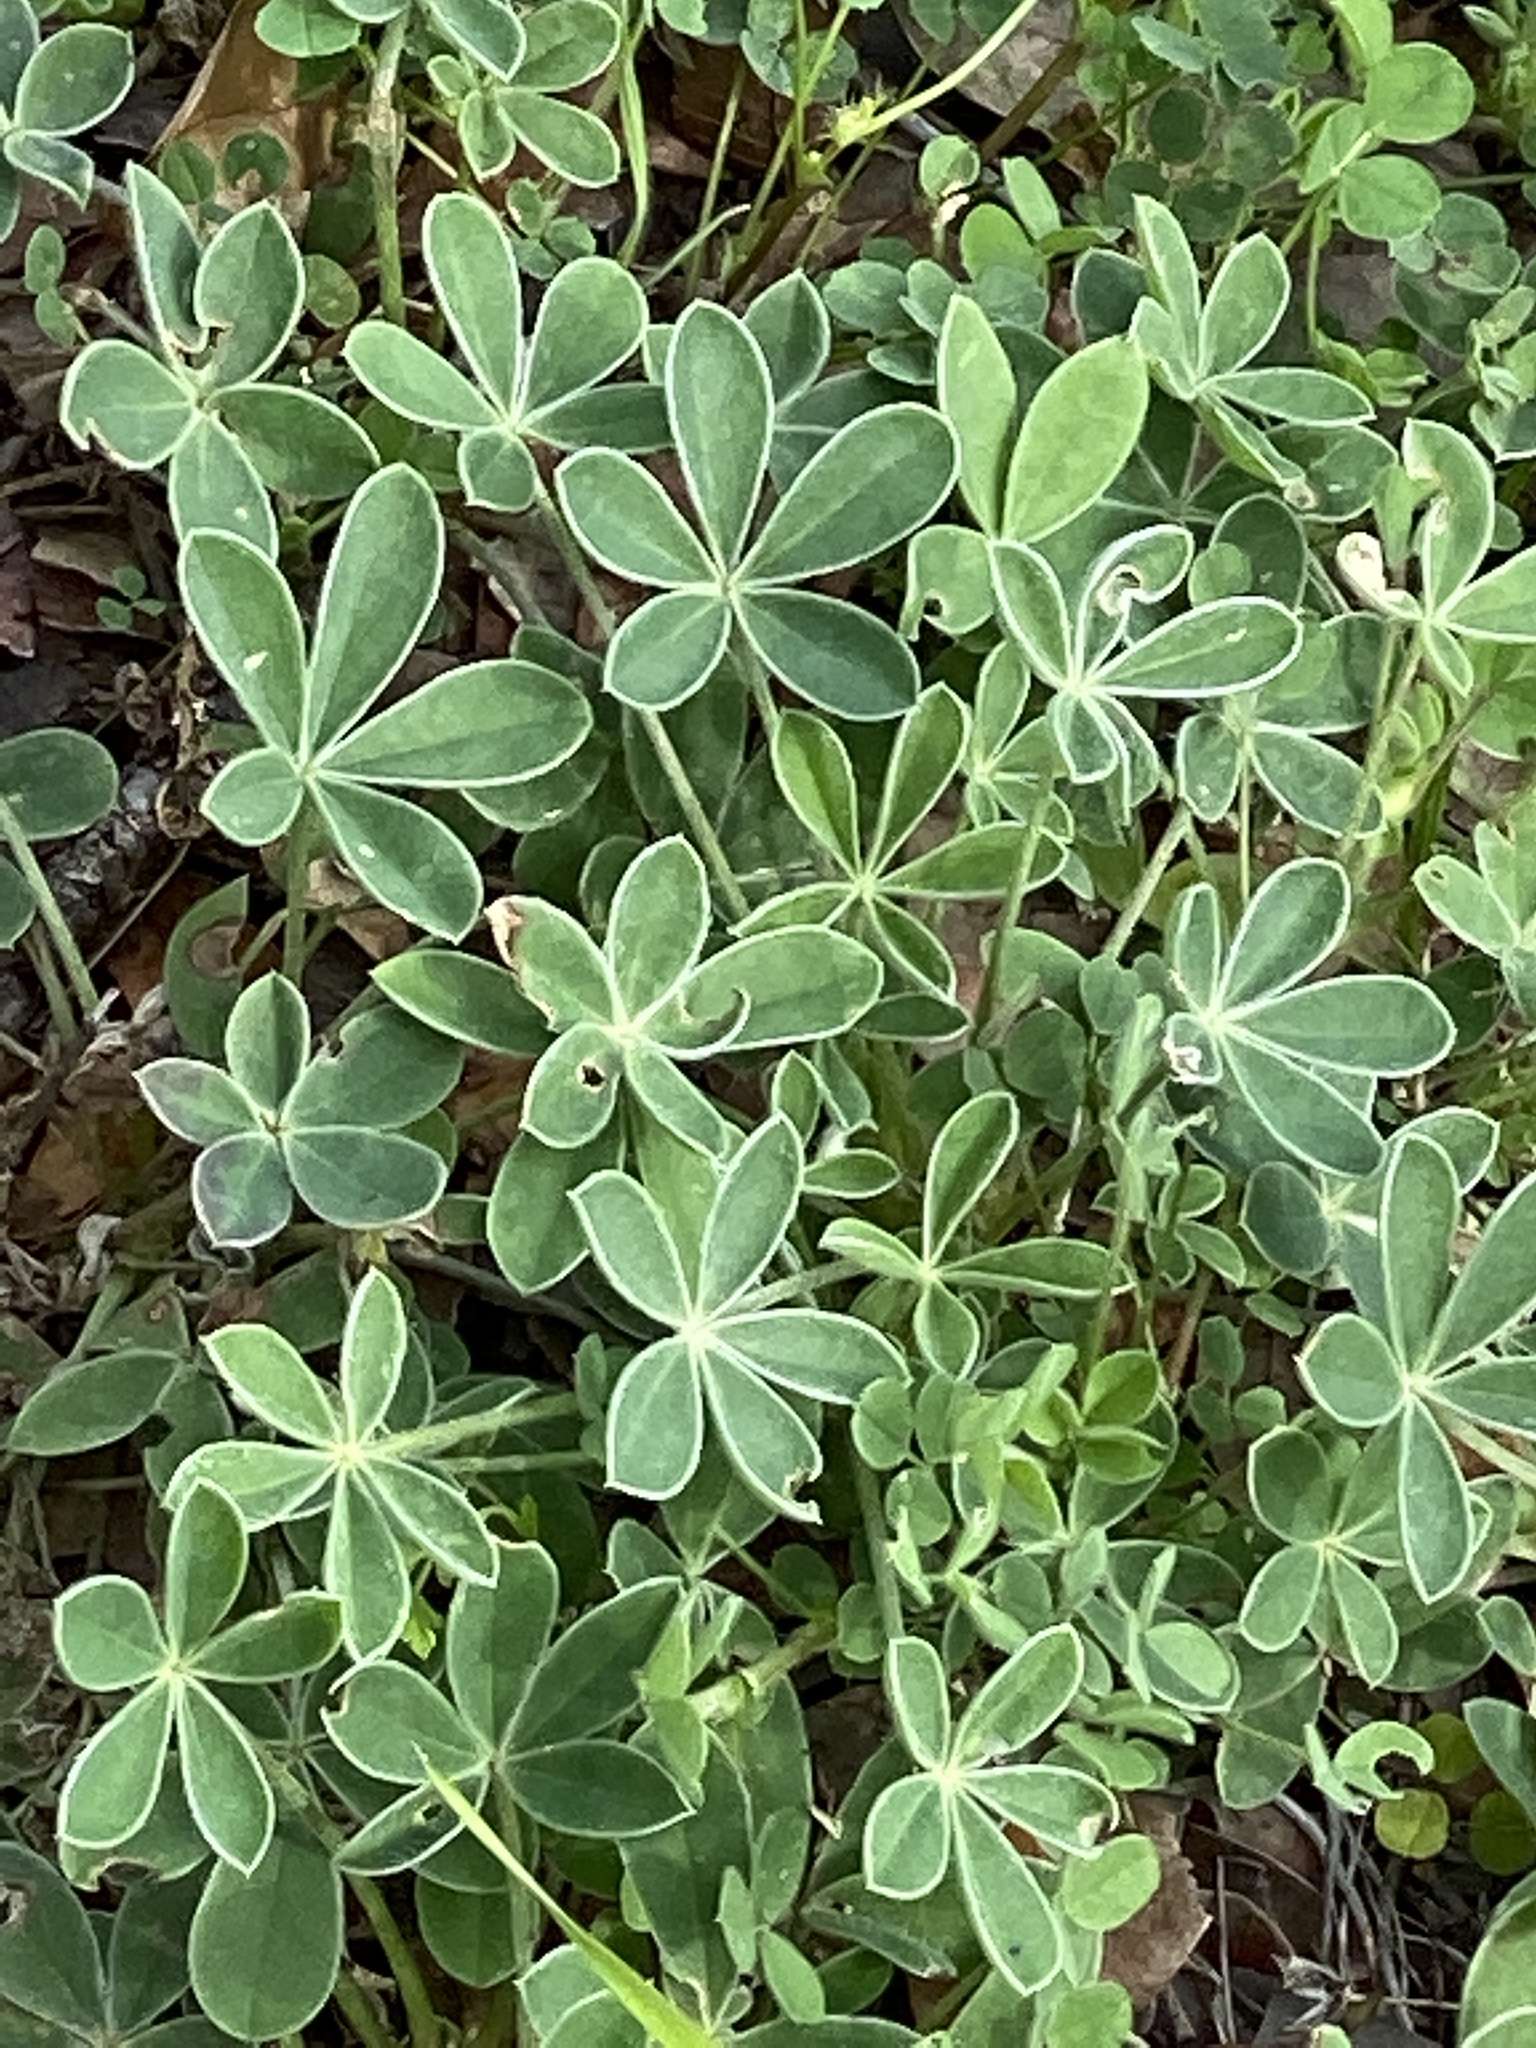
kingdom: Plantae
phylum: Tracheophyta
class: Magnoliopsida
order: Fabales
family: Fabaceae
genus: Lupinus
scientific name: Lupinus texensis
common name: Texas bluebonnet
